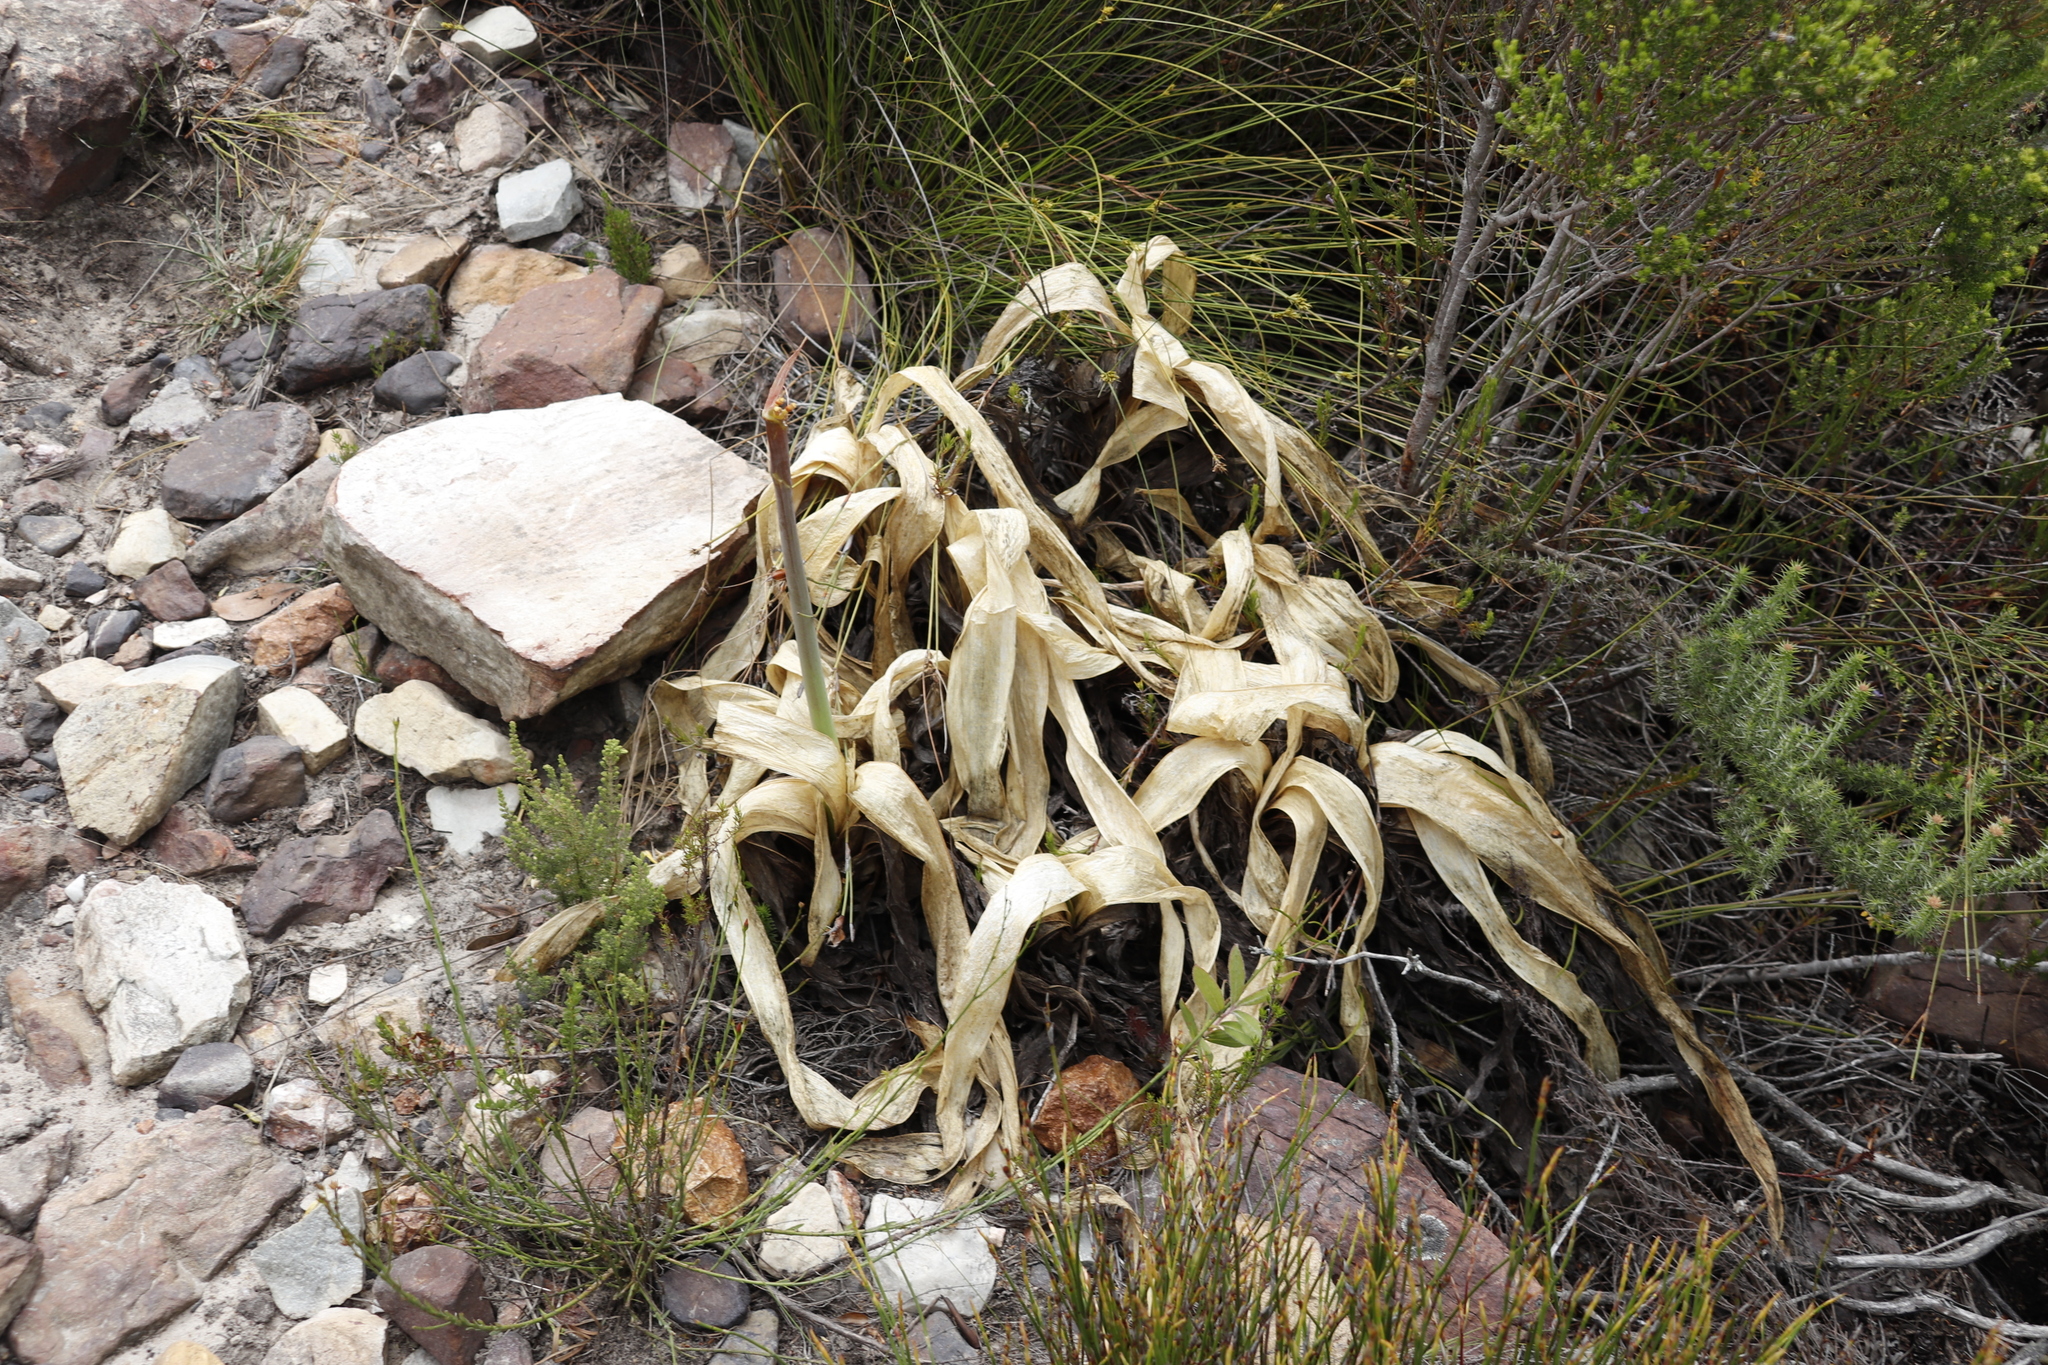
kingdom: Plantae
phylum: Tracheophyta
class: Liliopsida
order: Asparagales
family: Asparagaceae
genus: Drimia
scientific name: Drimia capensis
